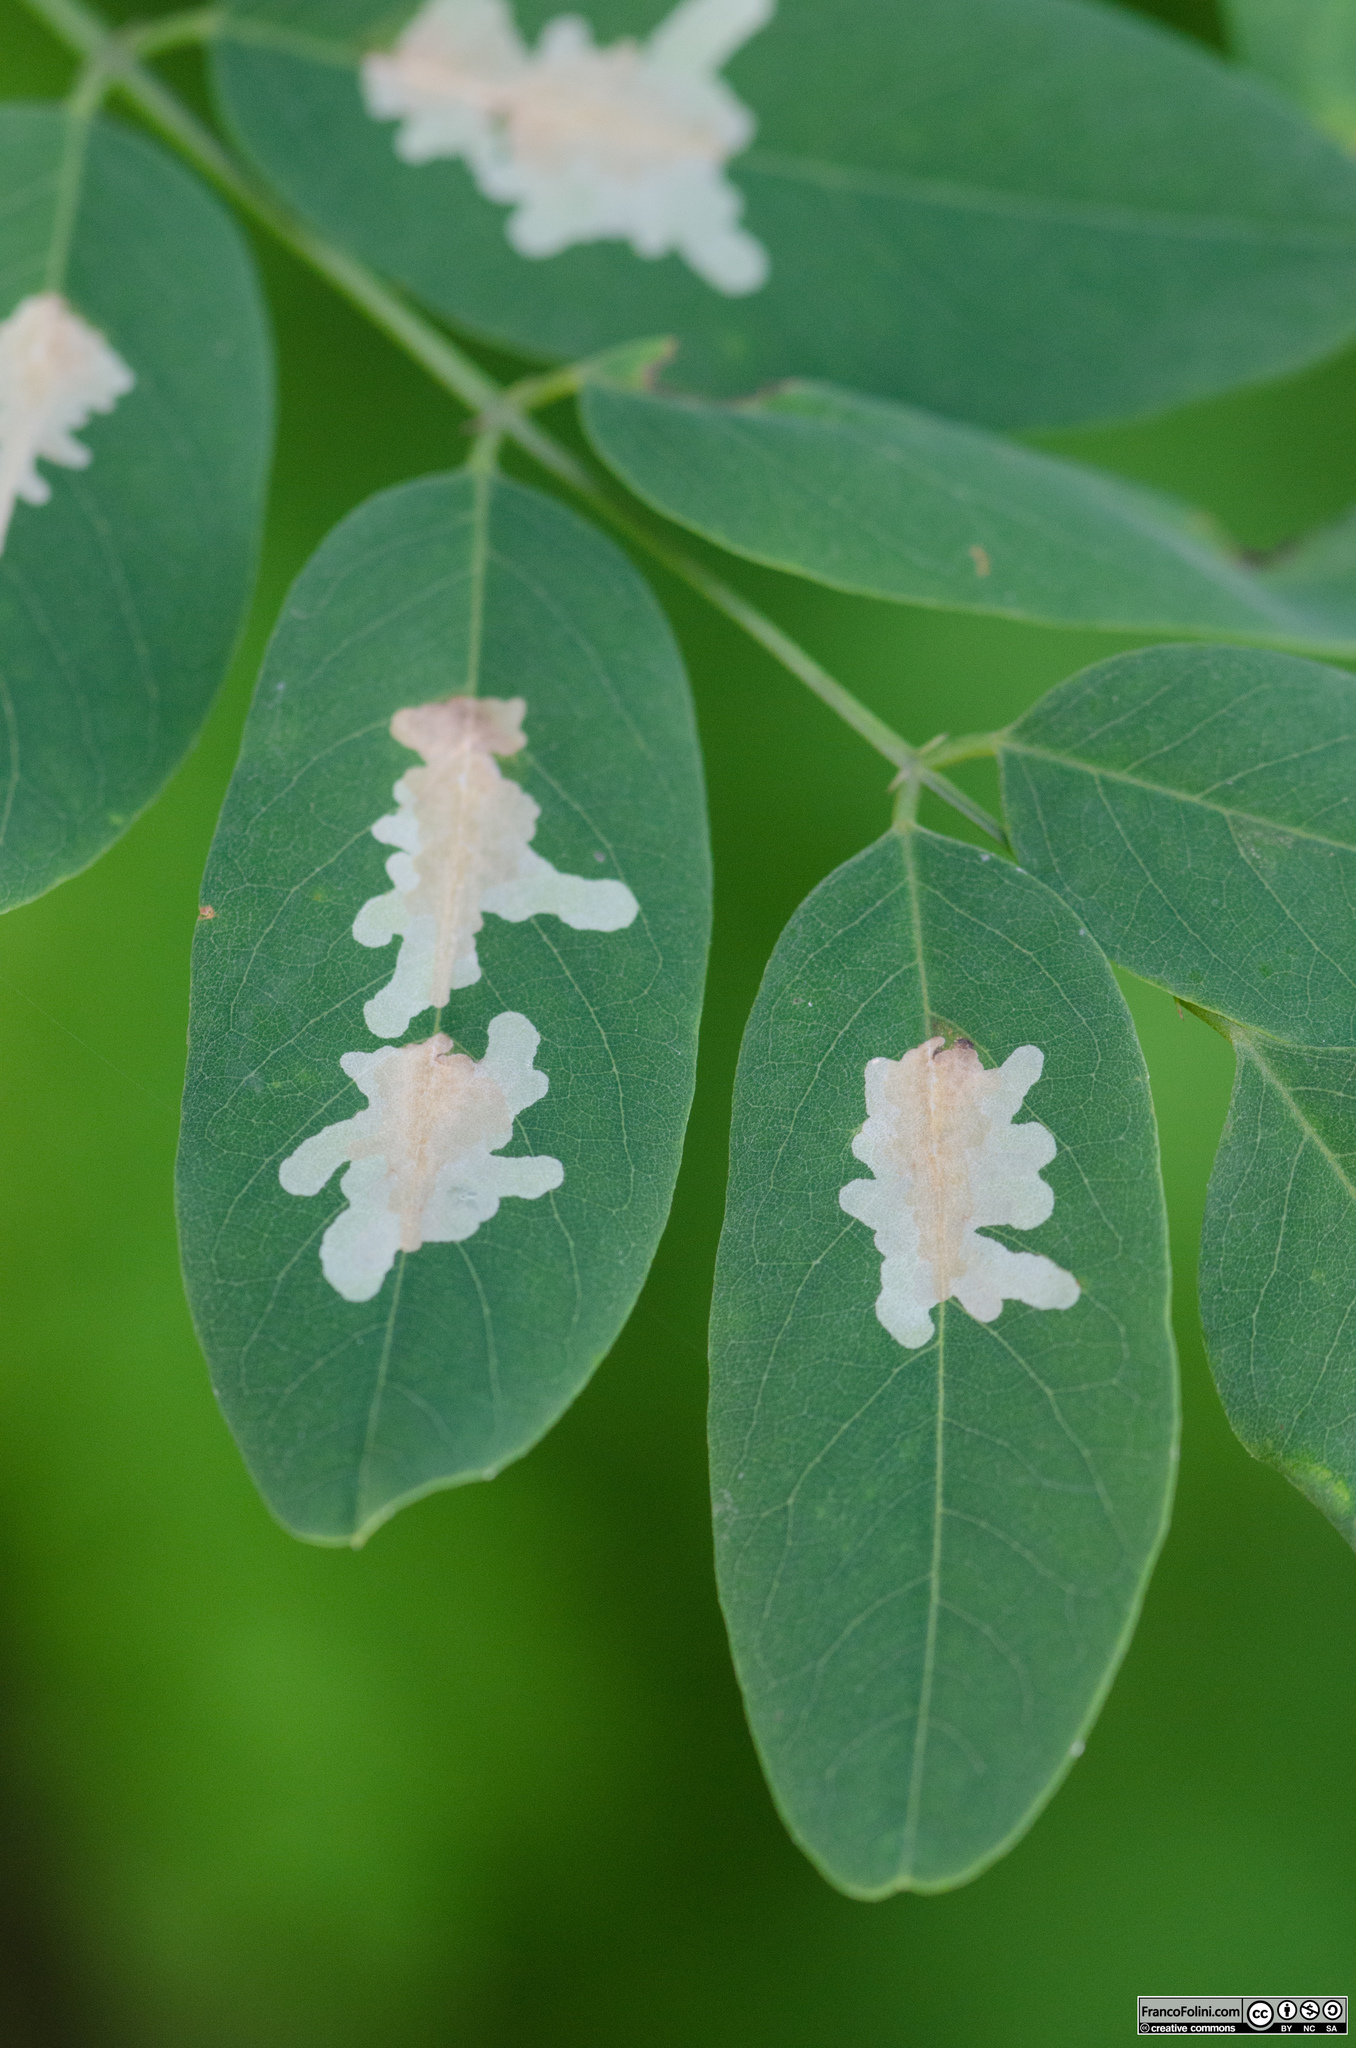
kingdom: Animalia
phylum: Arthropoda
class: Insecta
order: Lepidoptera
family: Gracillariidae
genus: Parectopa
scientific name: Parectopa robiniella
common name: Locust digitate leafminer
